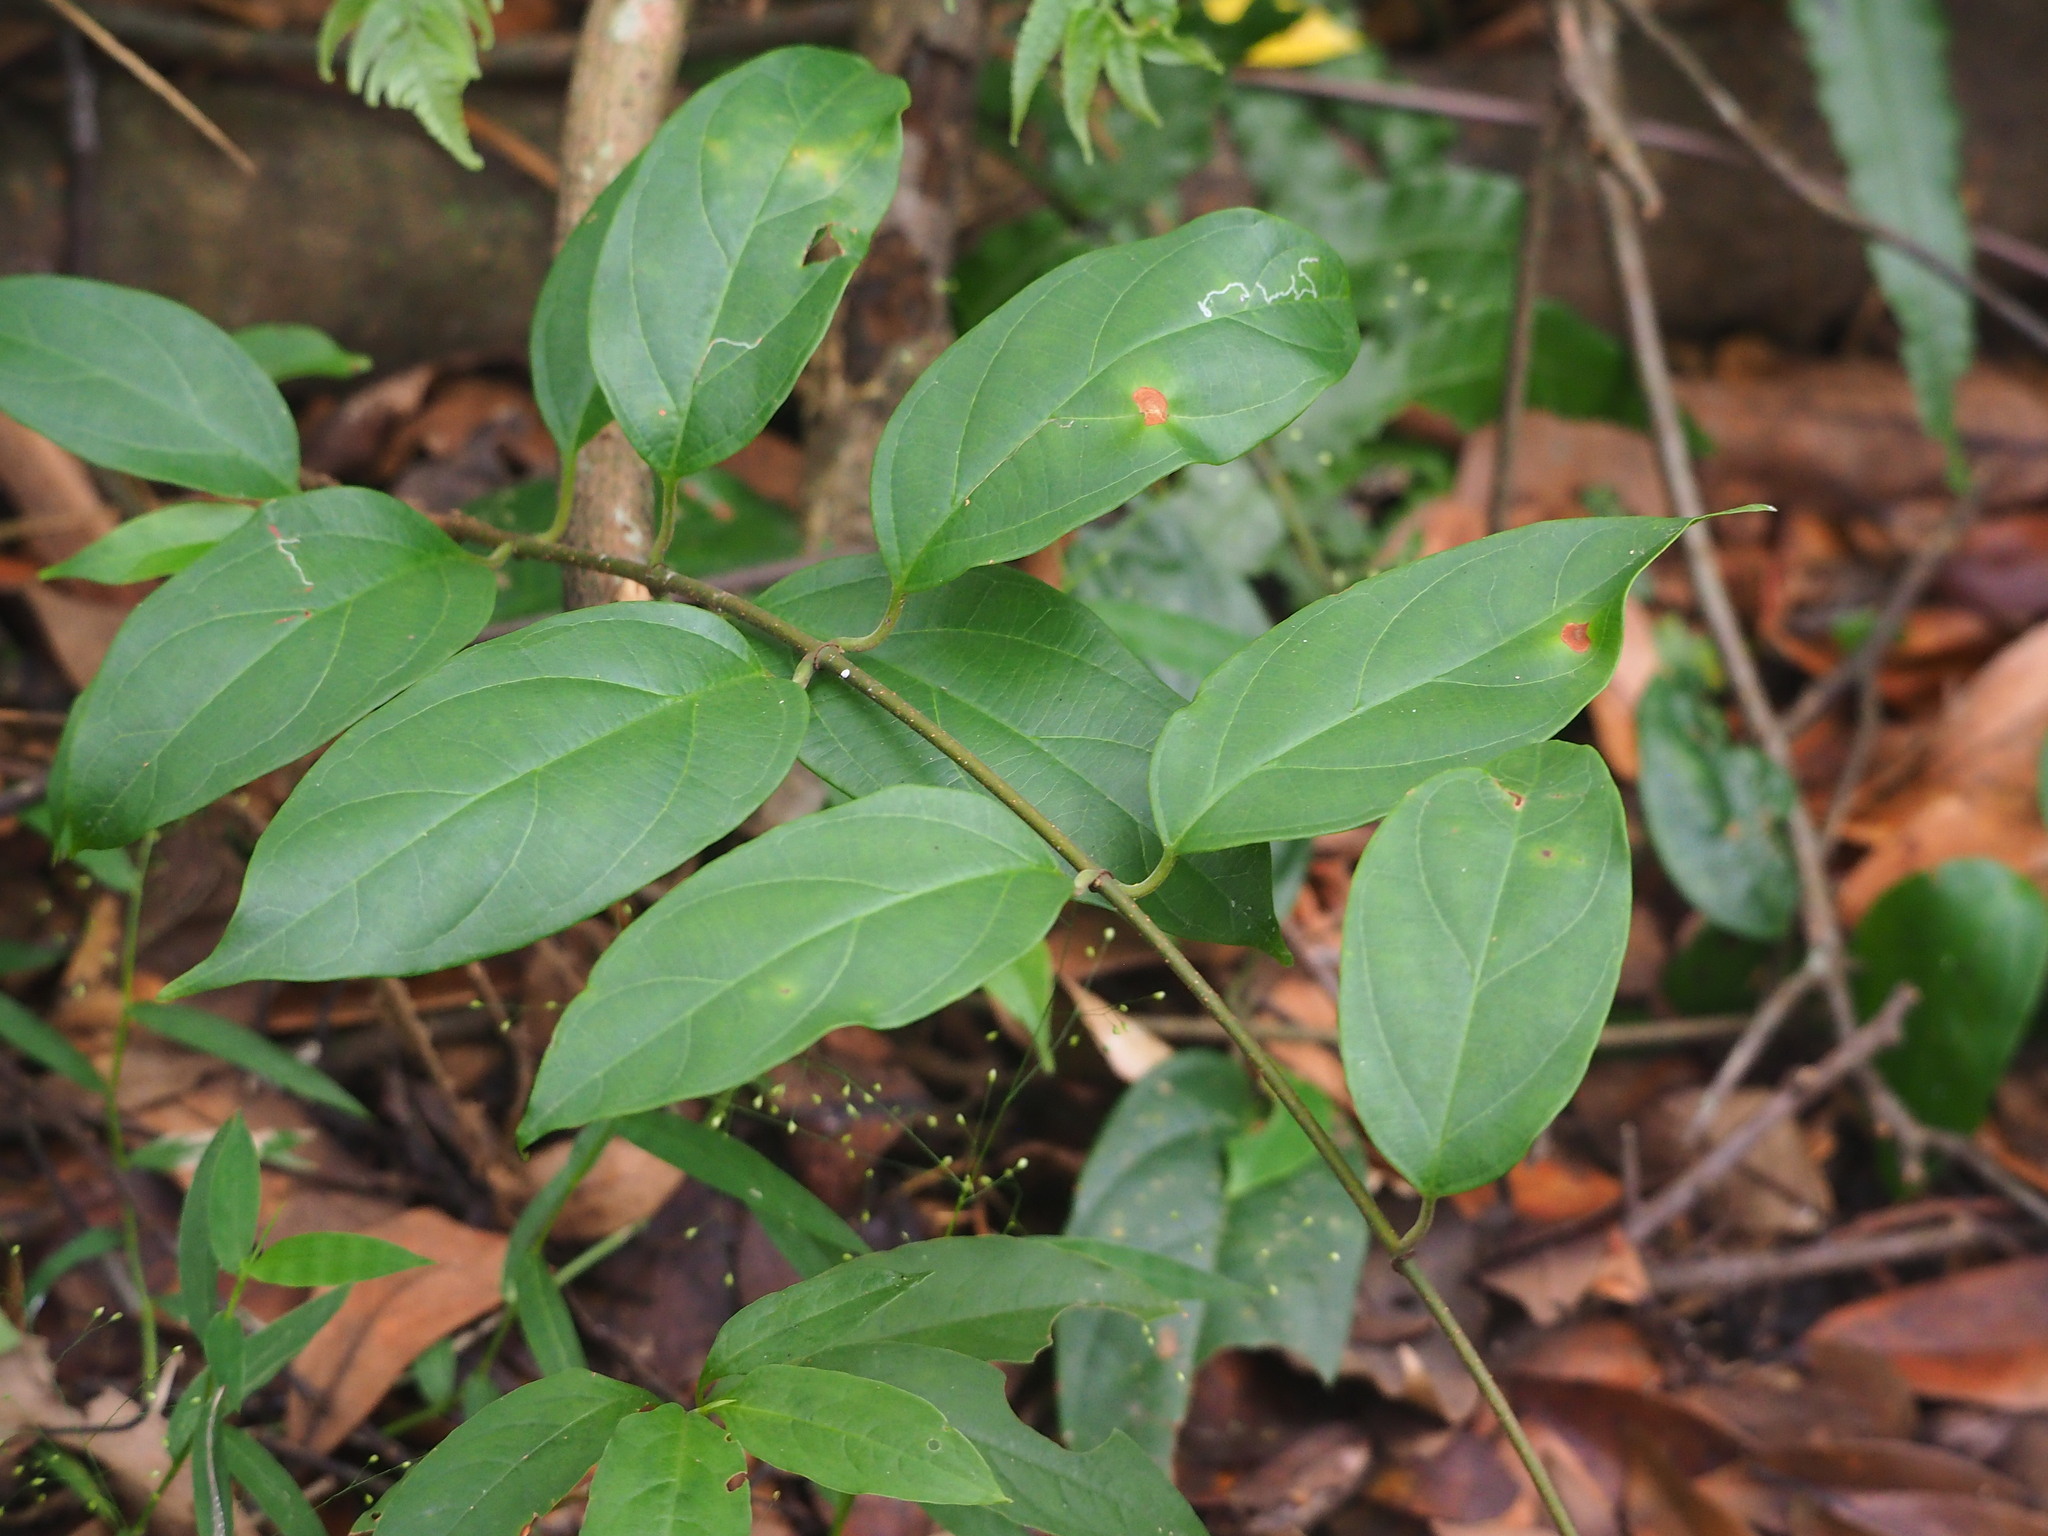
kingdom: Plantae
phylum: Tracheophyta
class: Magnoliopsida
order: Gentianales
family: Apocynaceae
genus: Urceola
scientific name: Urceola micrantha
